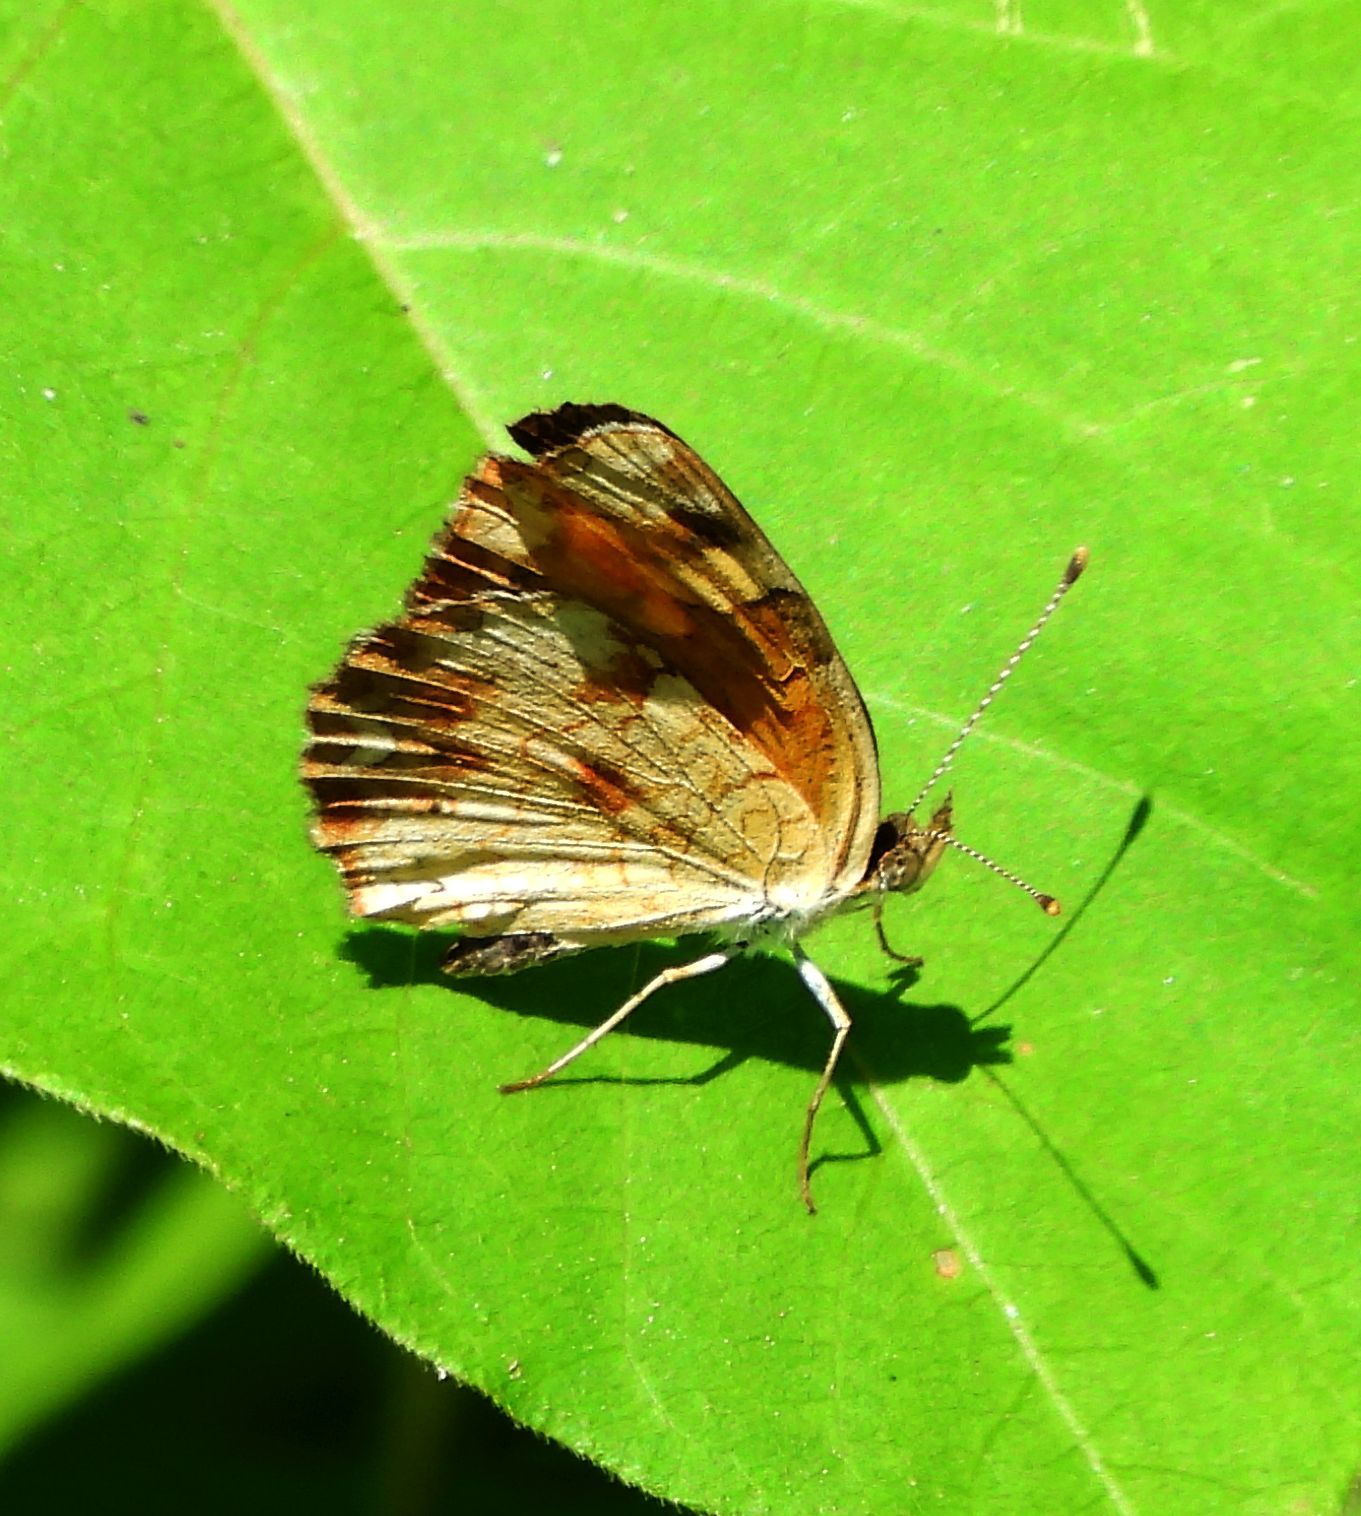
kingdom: Animalia
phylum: Arthropoda
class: Insecta
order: Lepidoptera
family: Nymphalidae
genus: Phyciodes
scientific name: Phyciodes tharos
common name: Pearl crescent
